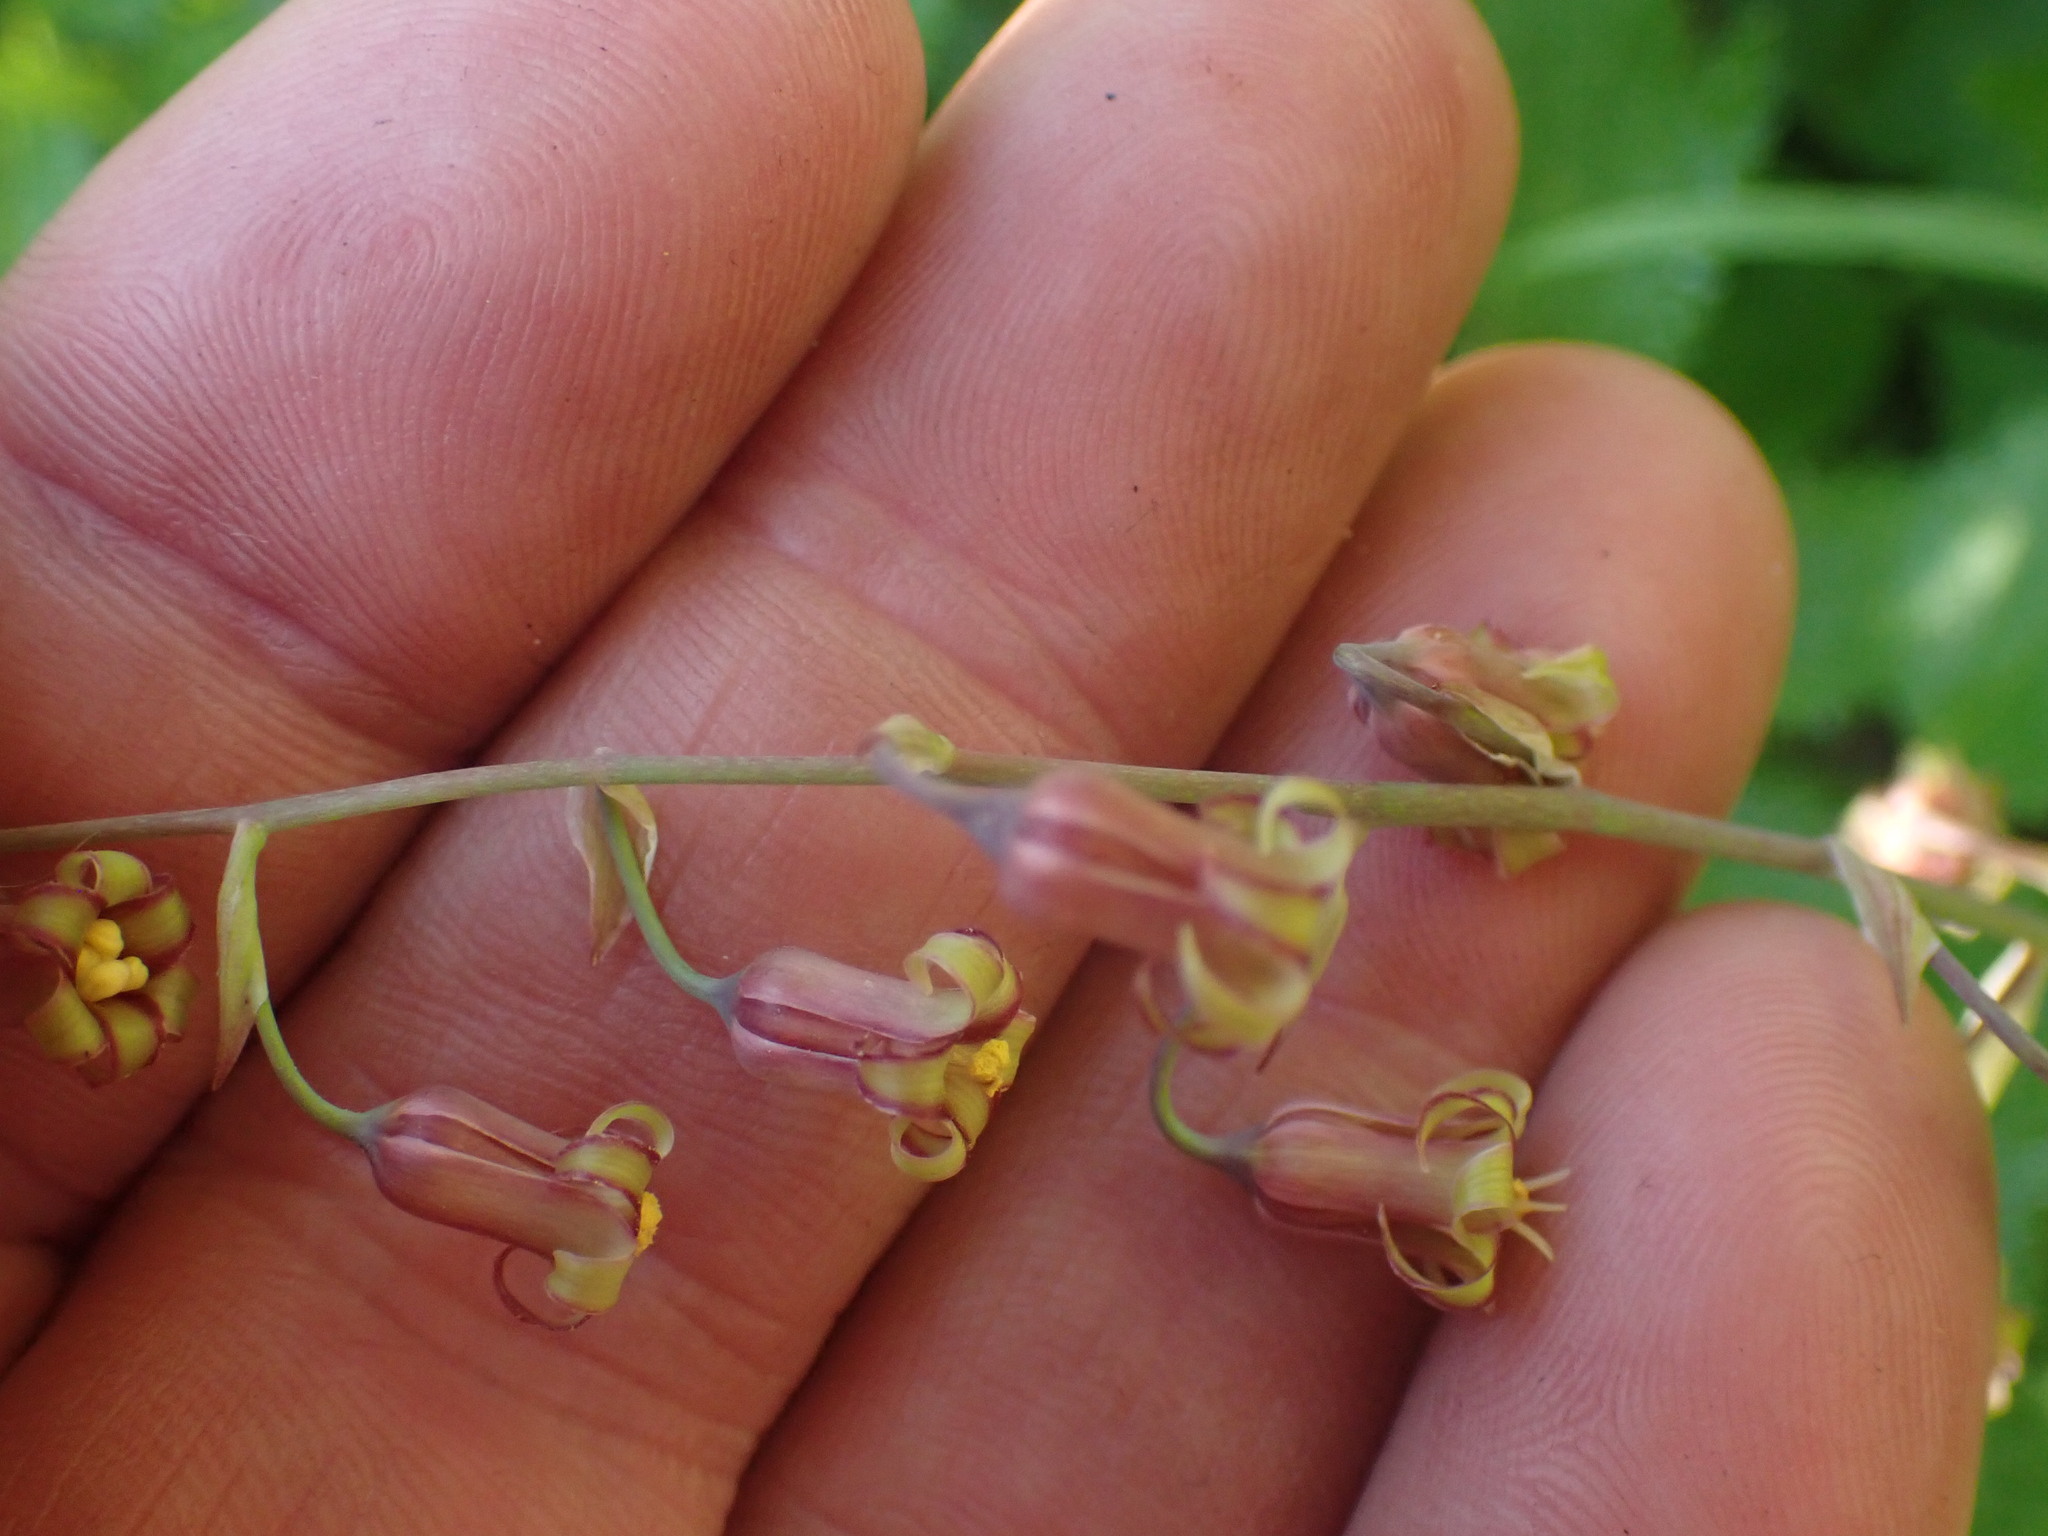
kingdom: Plantae
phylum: Tracheophyta
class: Liliopsida
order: Liliales
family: Melanthiaceae
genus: Anticlea
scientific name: Anticlea occidentalis
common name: Bronze-bells
